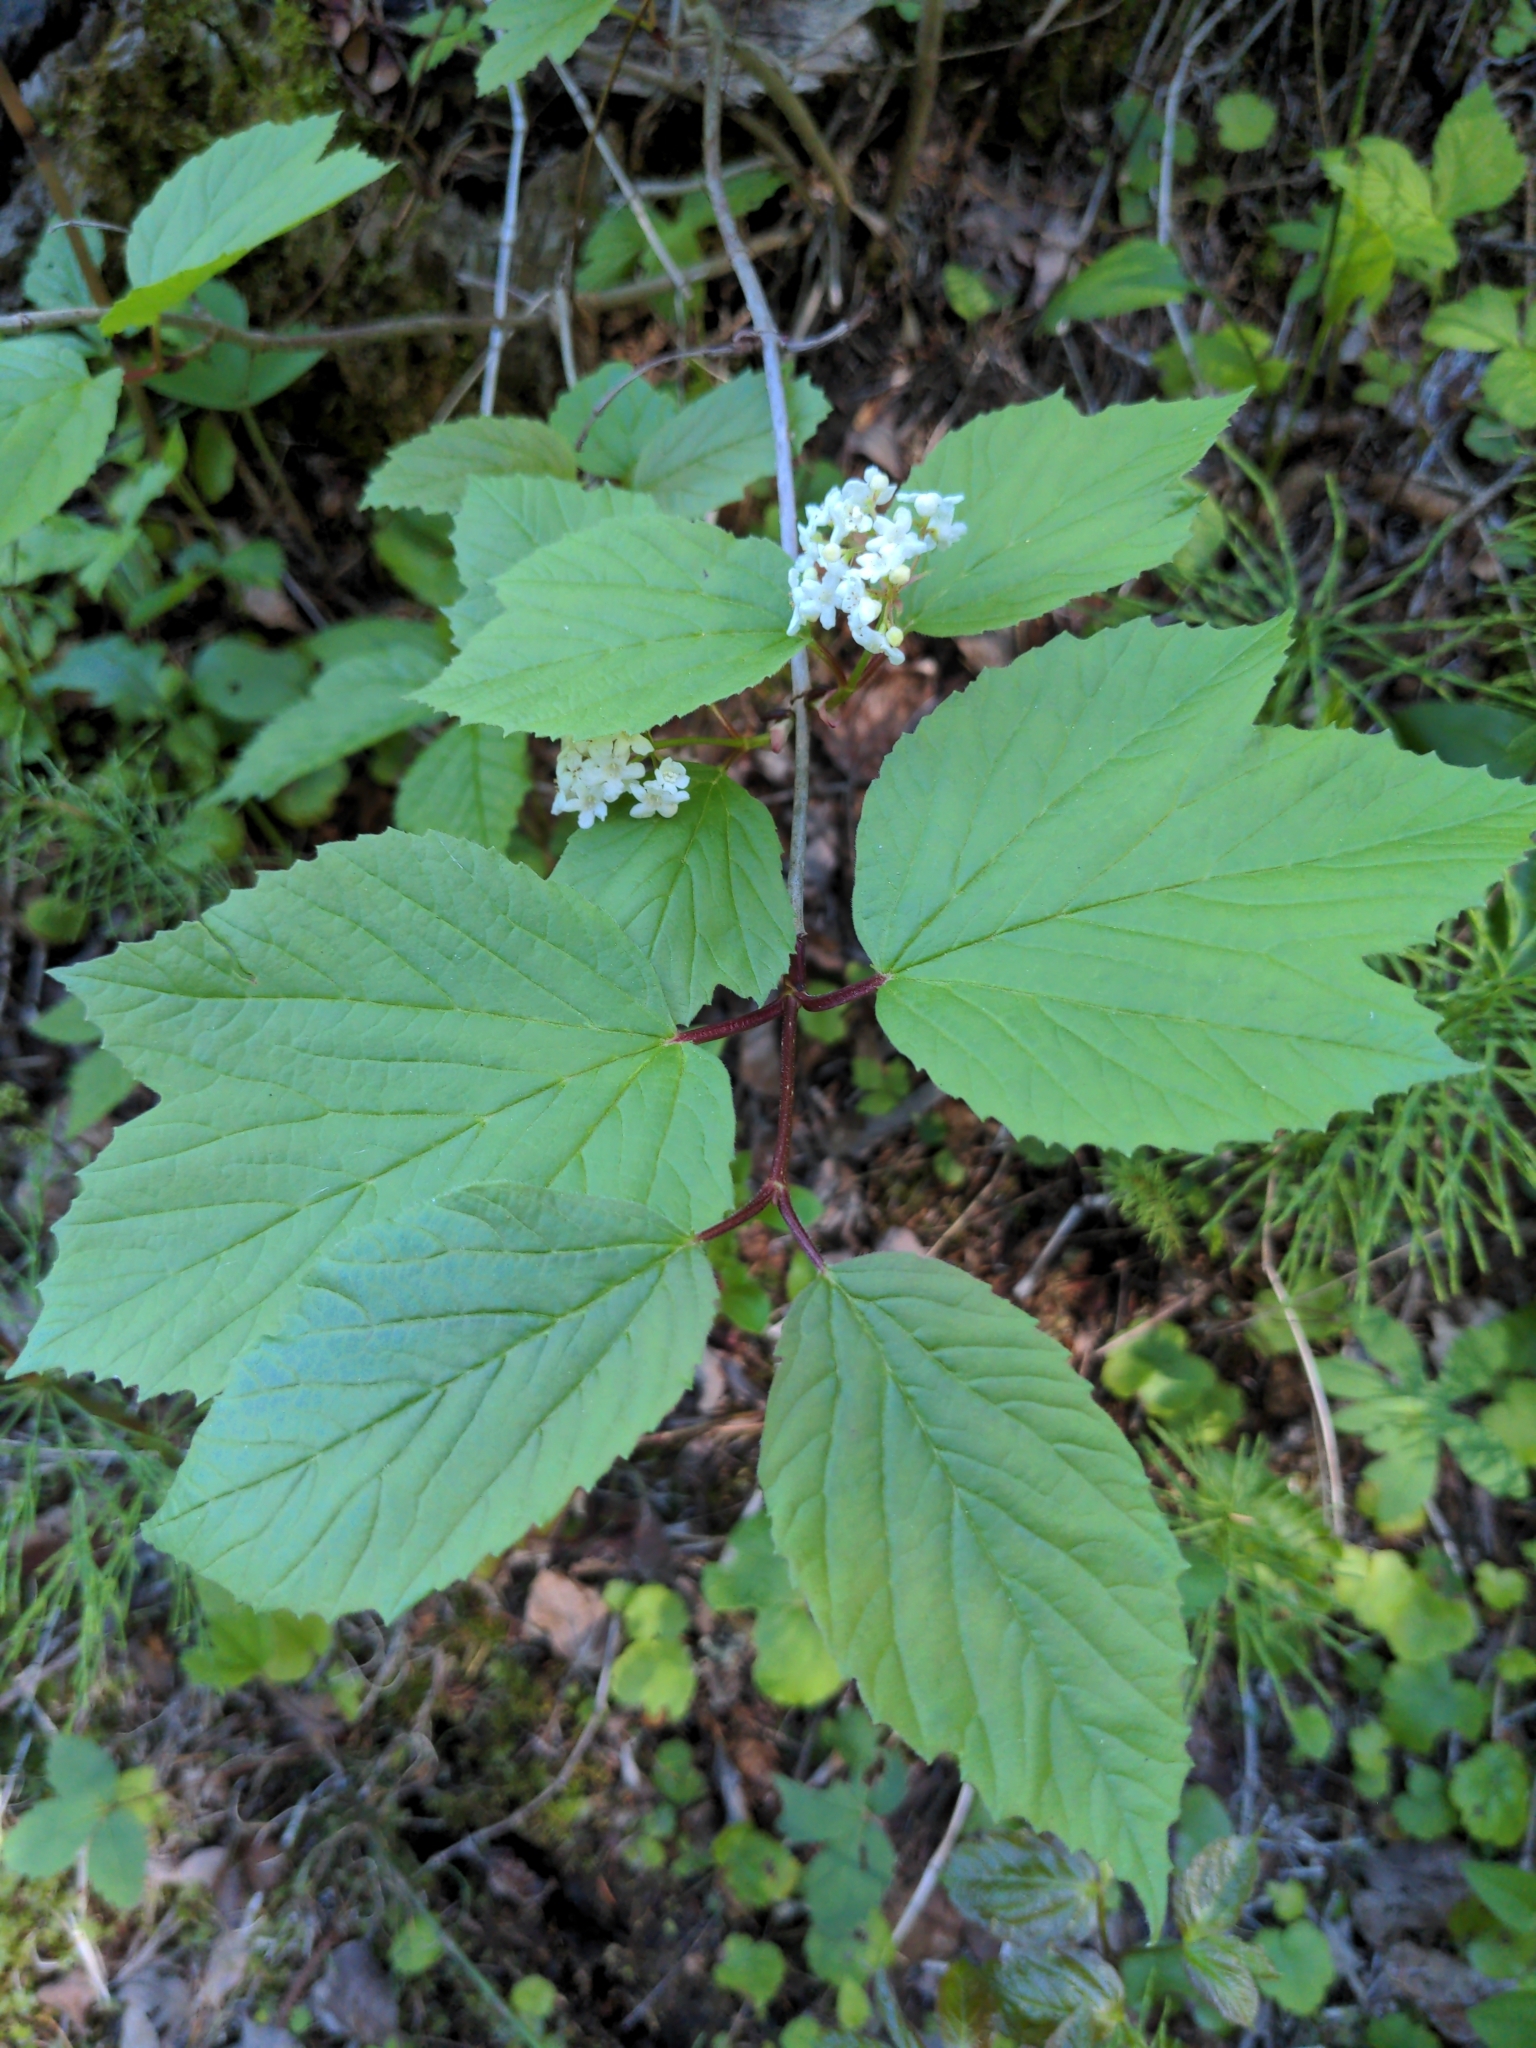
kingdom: Plantae
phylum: Tracheophyta
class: Magnoliopsida
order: Dipsacales
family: Viburnaceae
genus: Viburnum
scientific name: Viburnum edule
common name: Mooseberry
